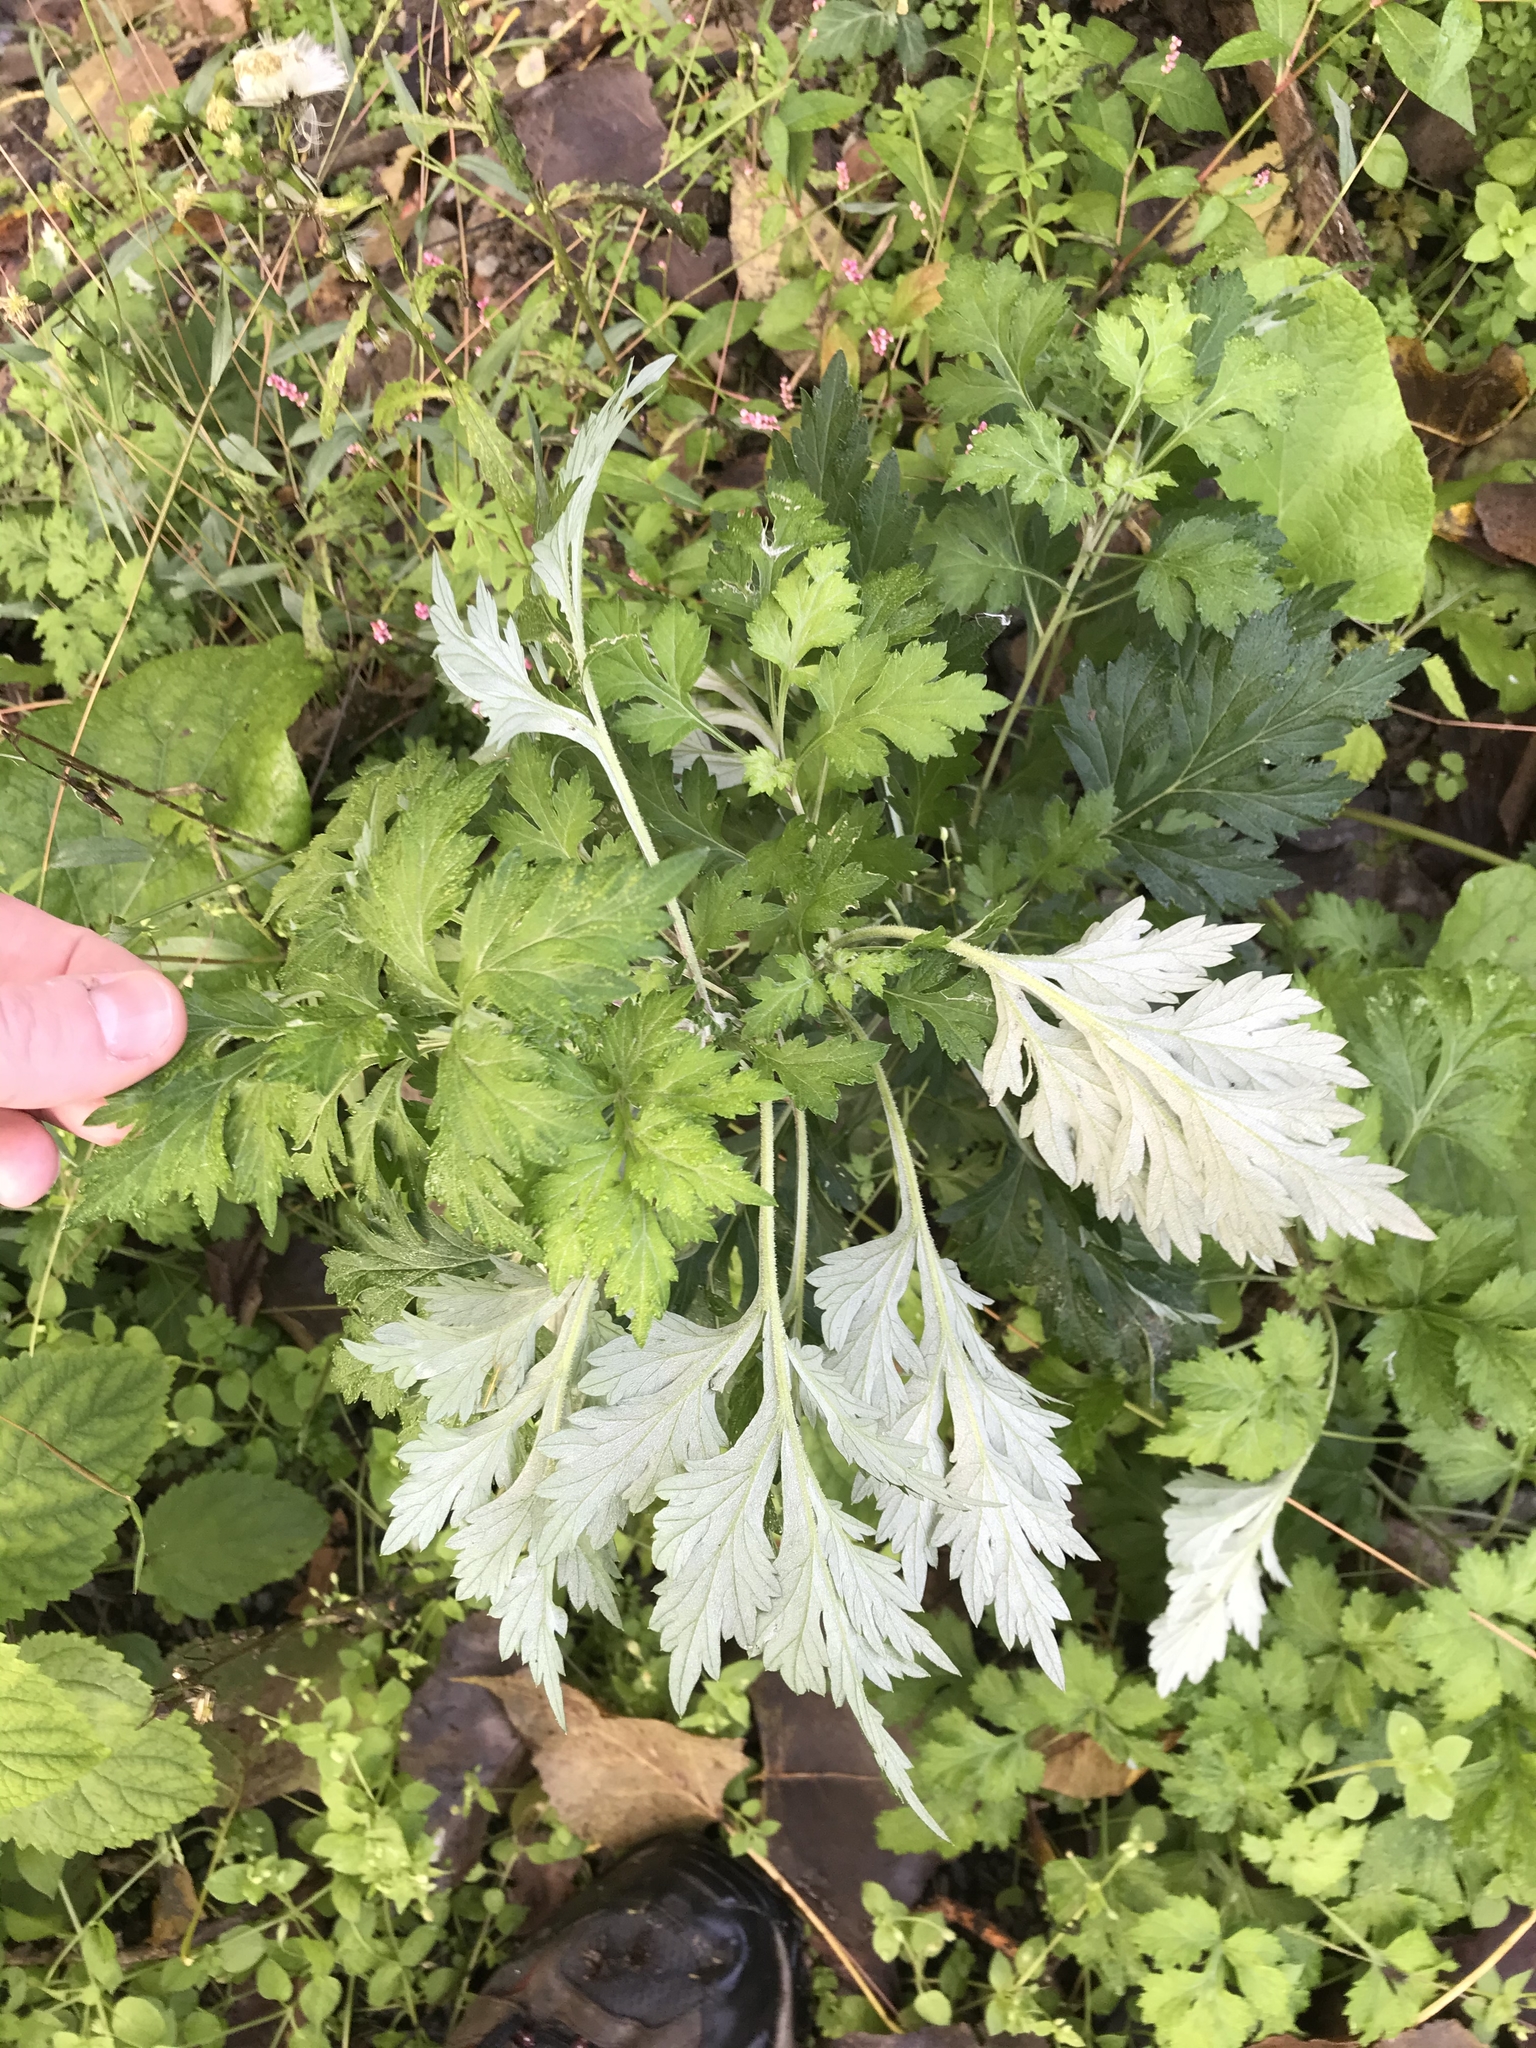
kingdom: Plantae
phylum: Tracheophyta
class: Magnoliopsida
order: Asterales
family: Asteraceae
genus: Artemisia
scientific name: Artemisia vulgaris
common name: Mugwort
